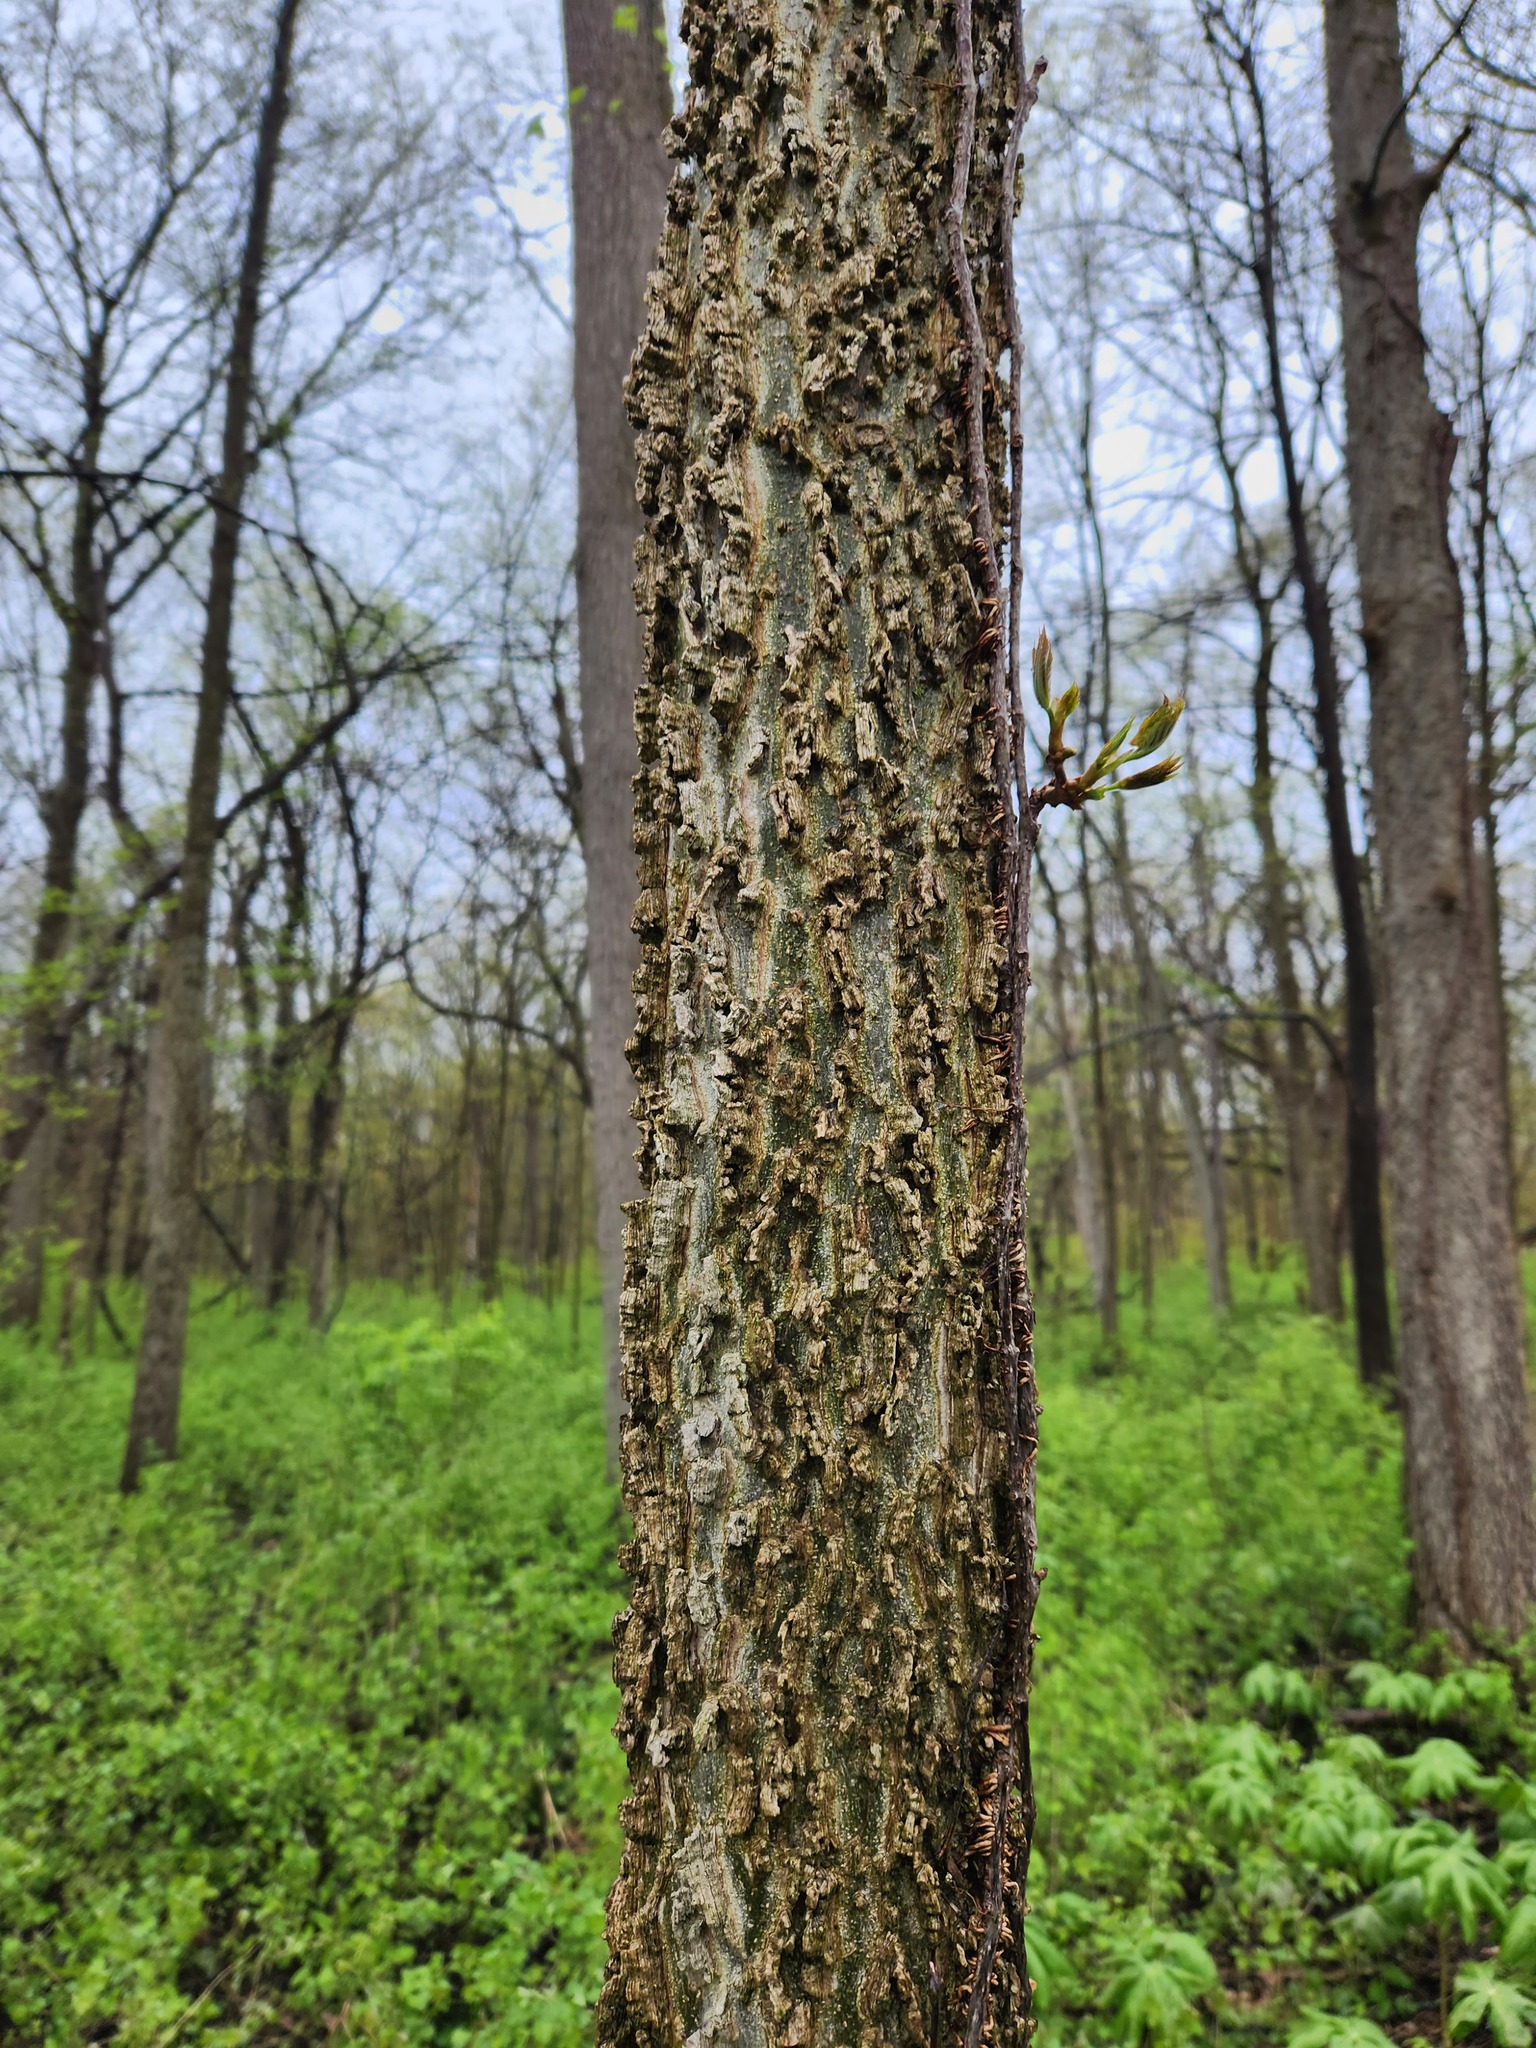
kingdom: Plantae
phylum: Tracheophyta
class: Magnoliopsida
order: Rosales
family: Cannabaceae
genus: Celtis
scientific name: Celtis occidentalis
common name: Common hackberry
